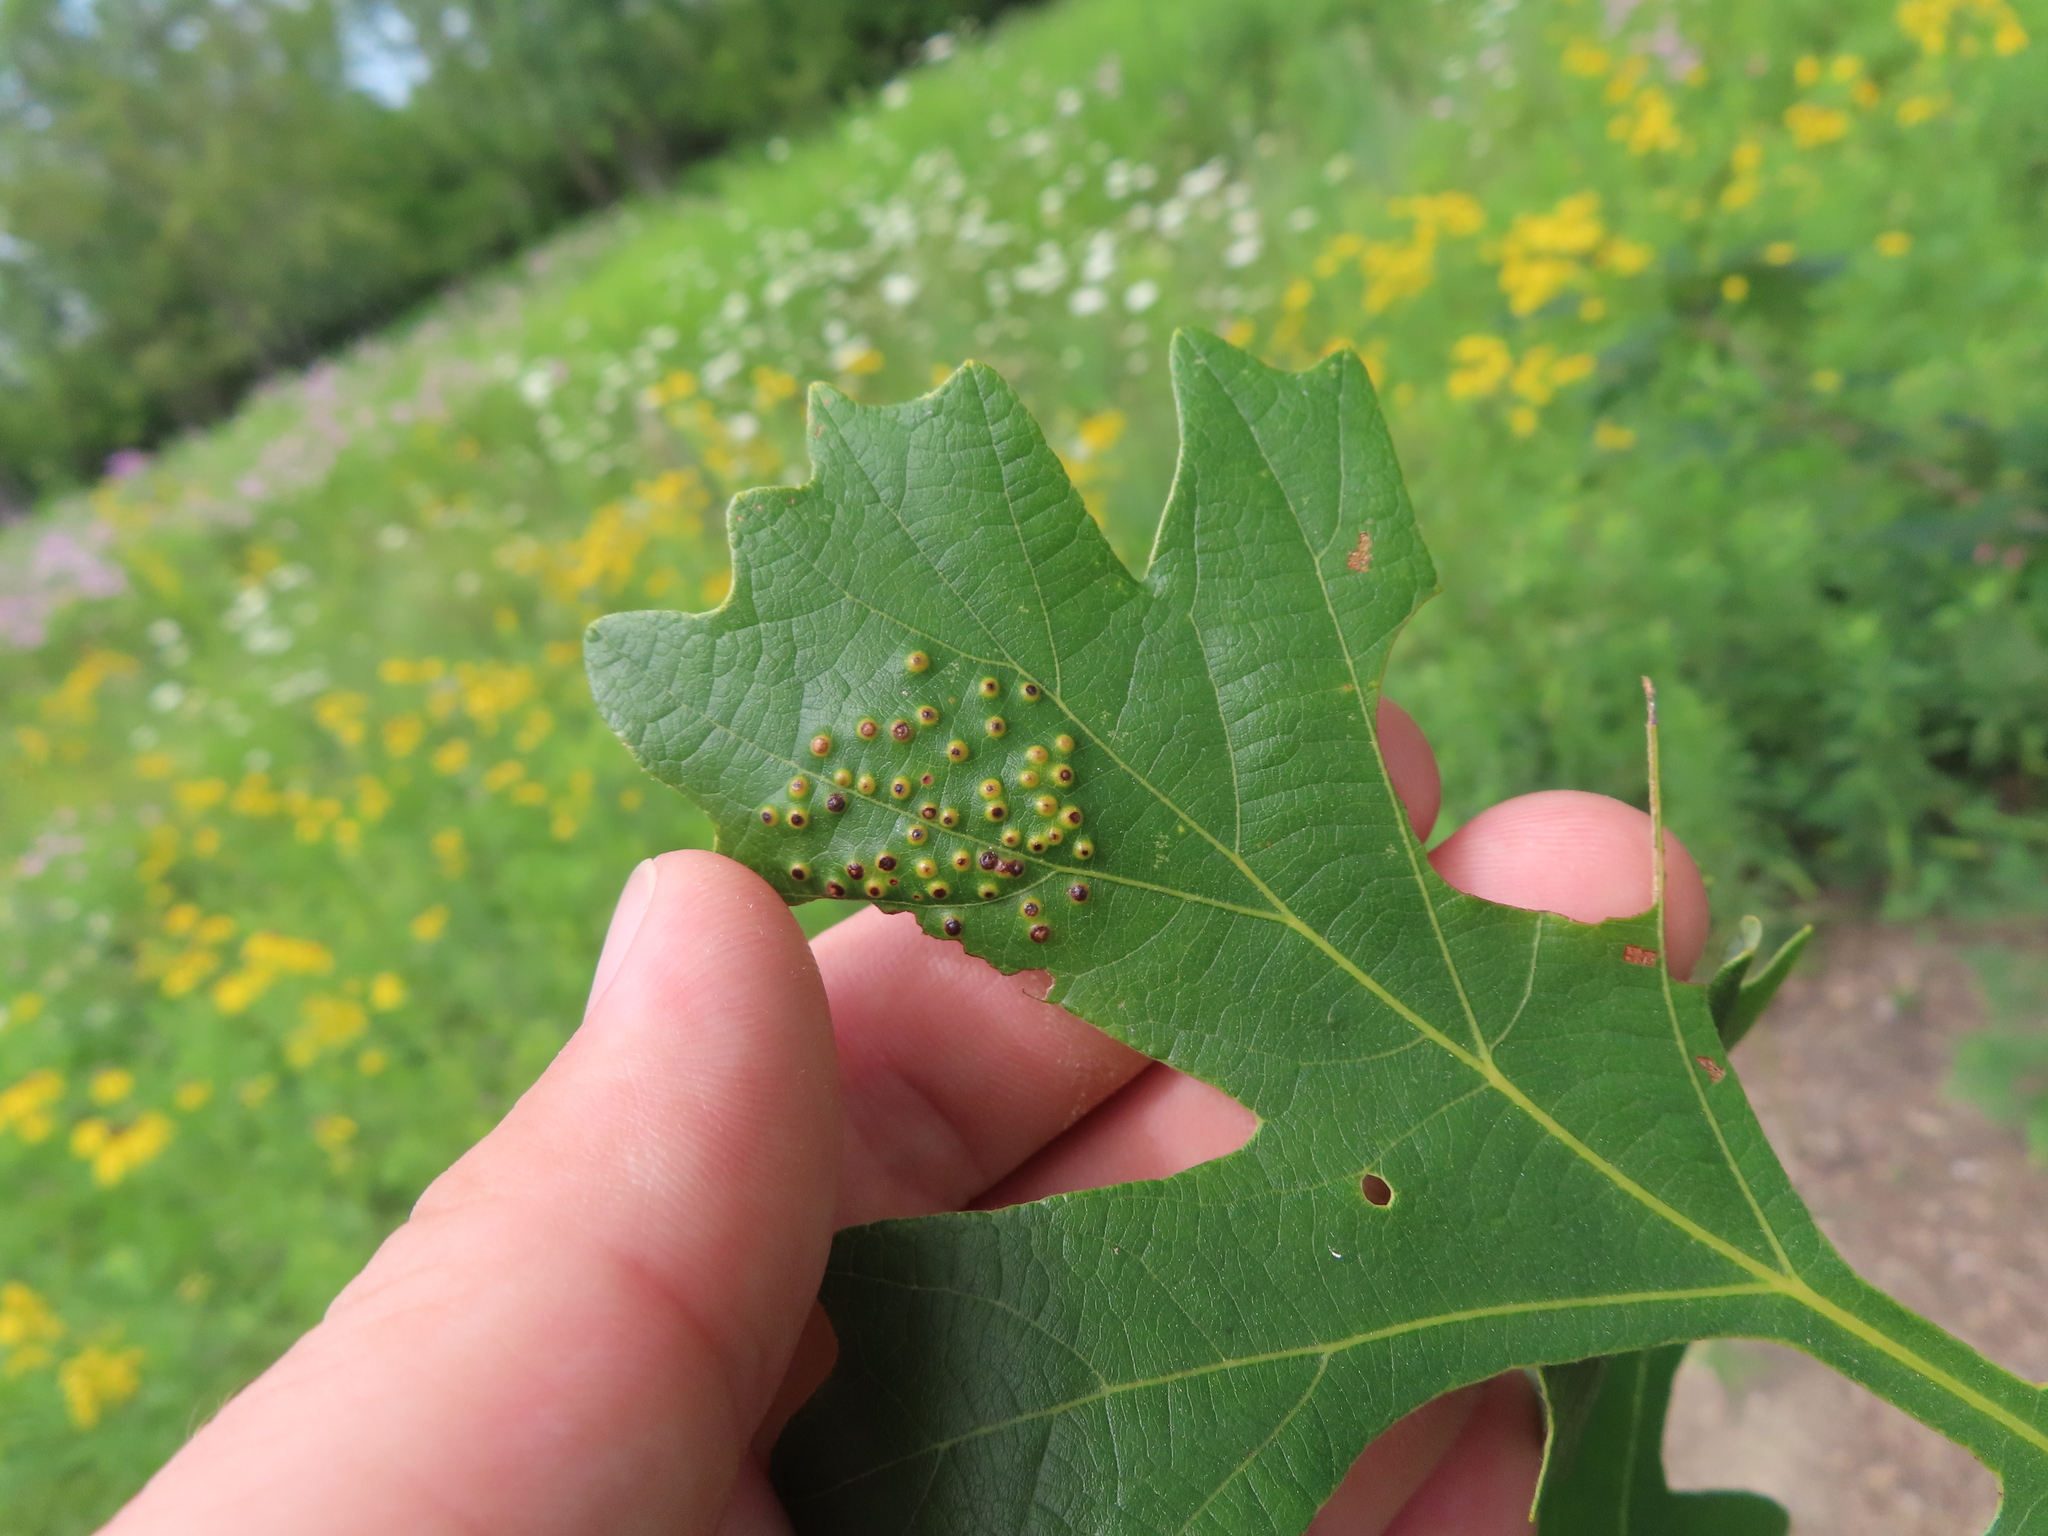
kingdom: Animalia
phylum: Arthropoda
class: Insecta
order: Hymenoptera
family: Cynipidae
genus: Neuroterus
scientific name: Neuroterus saltarius
